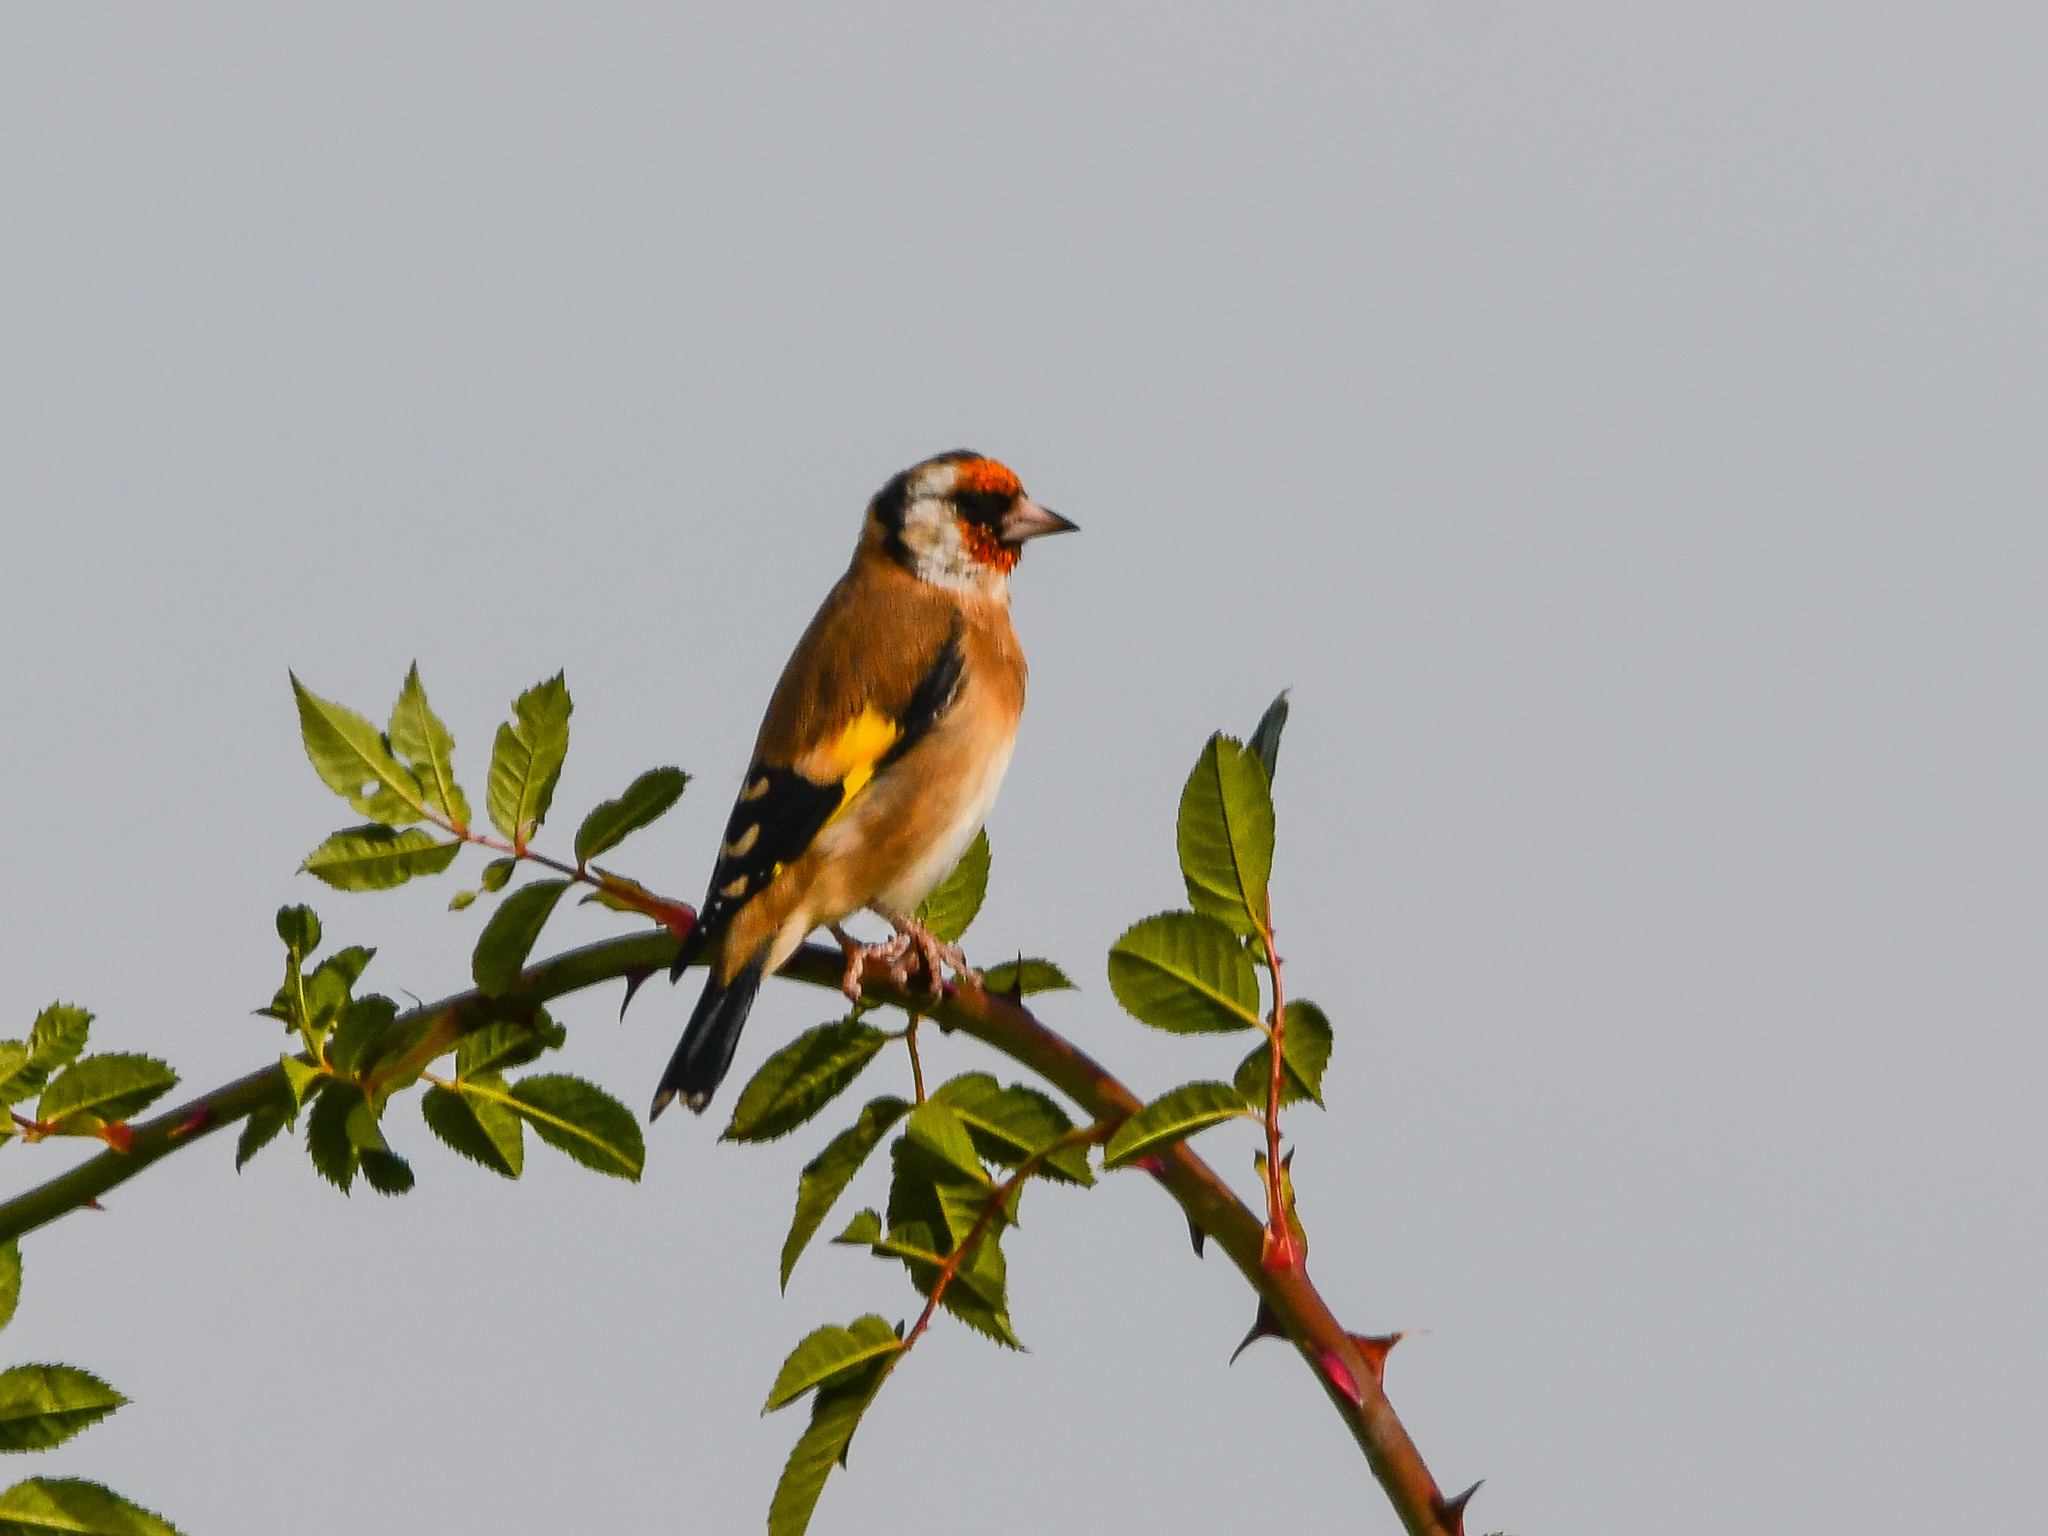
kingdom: Animalia
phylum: Chordata
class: Aves
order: Passeriformes
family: Fringillidae
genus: Carduelis
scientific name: Carduelis carduelis
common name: European goldfinch
